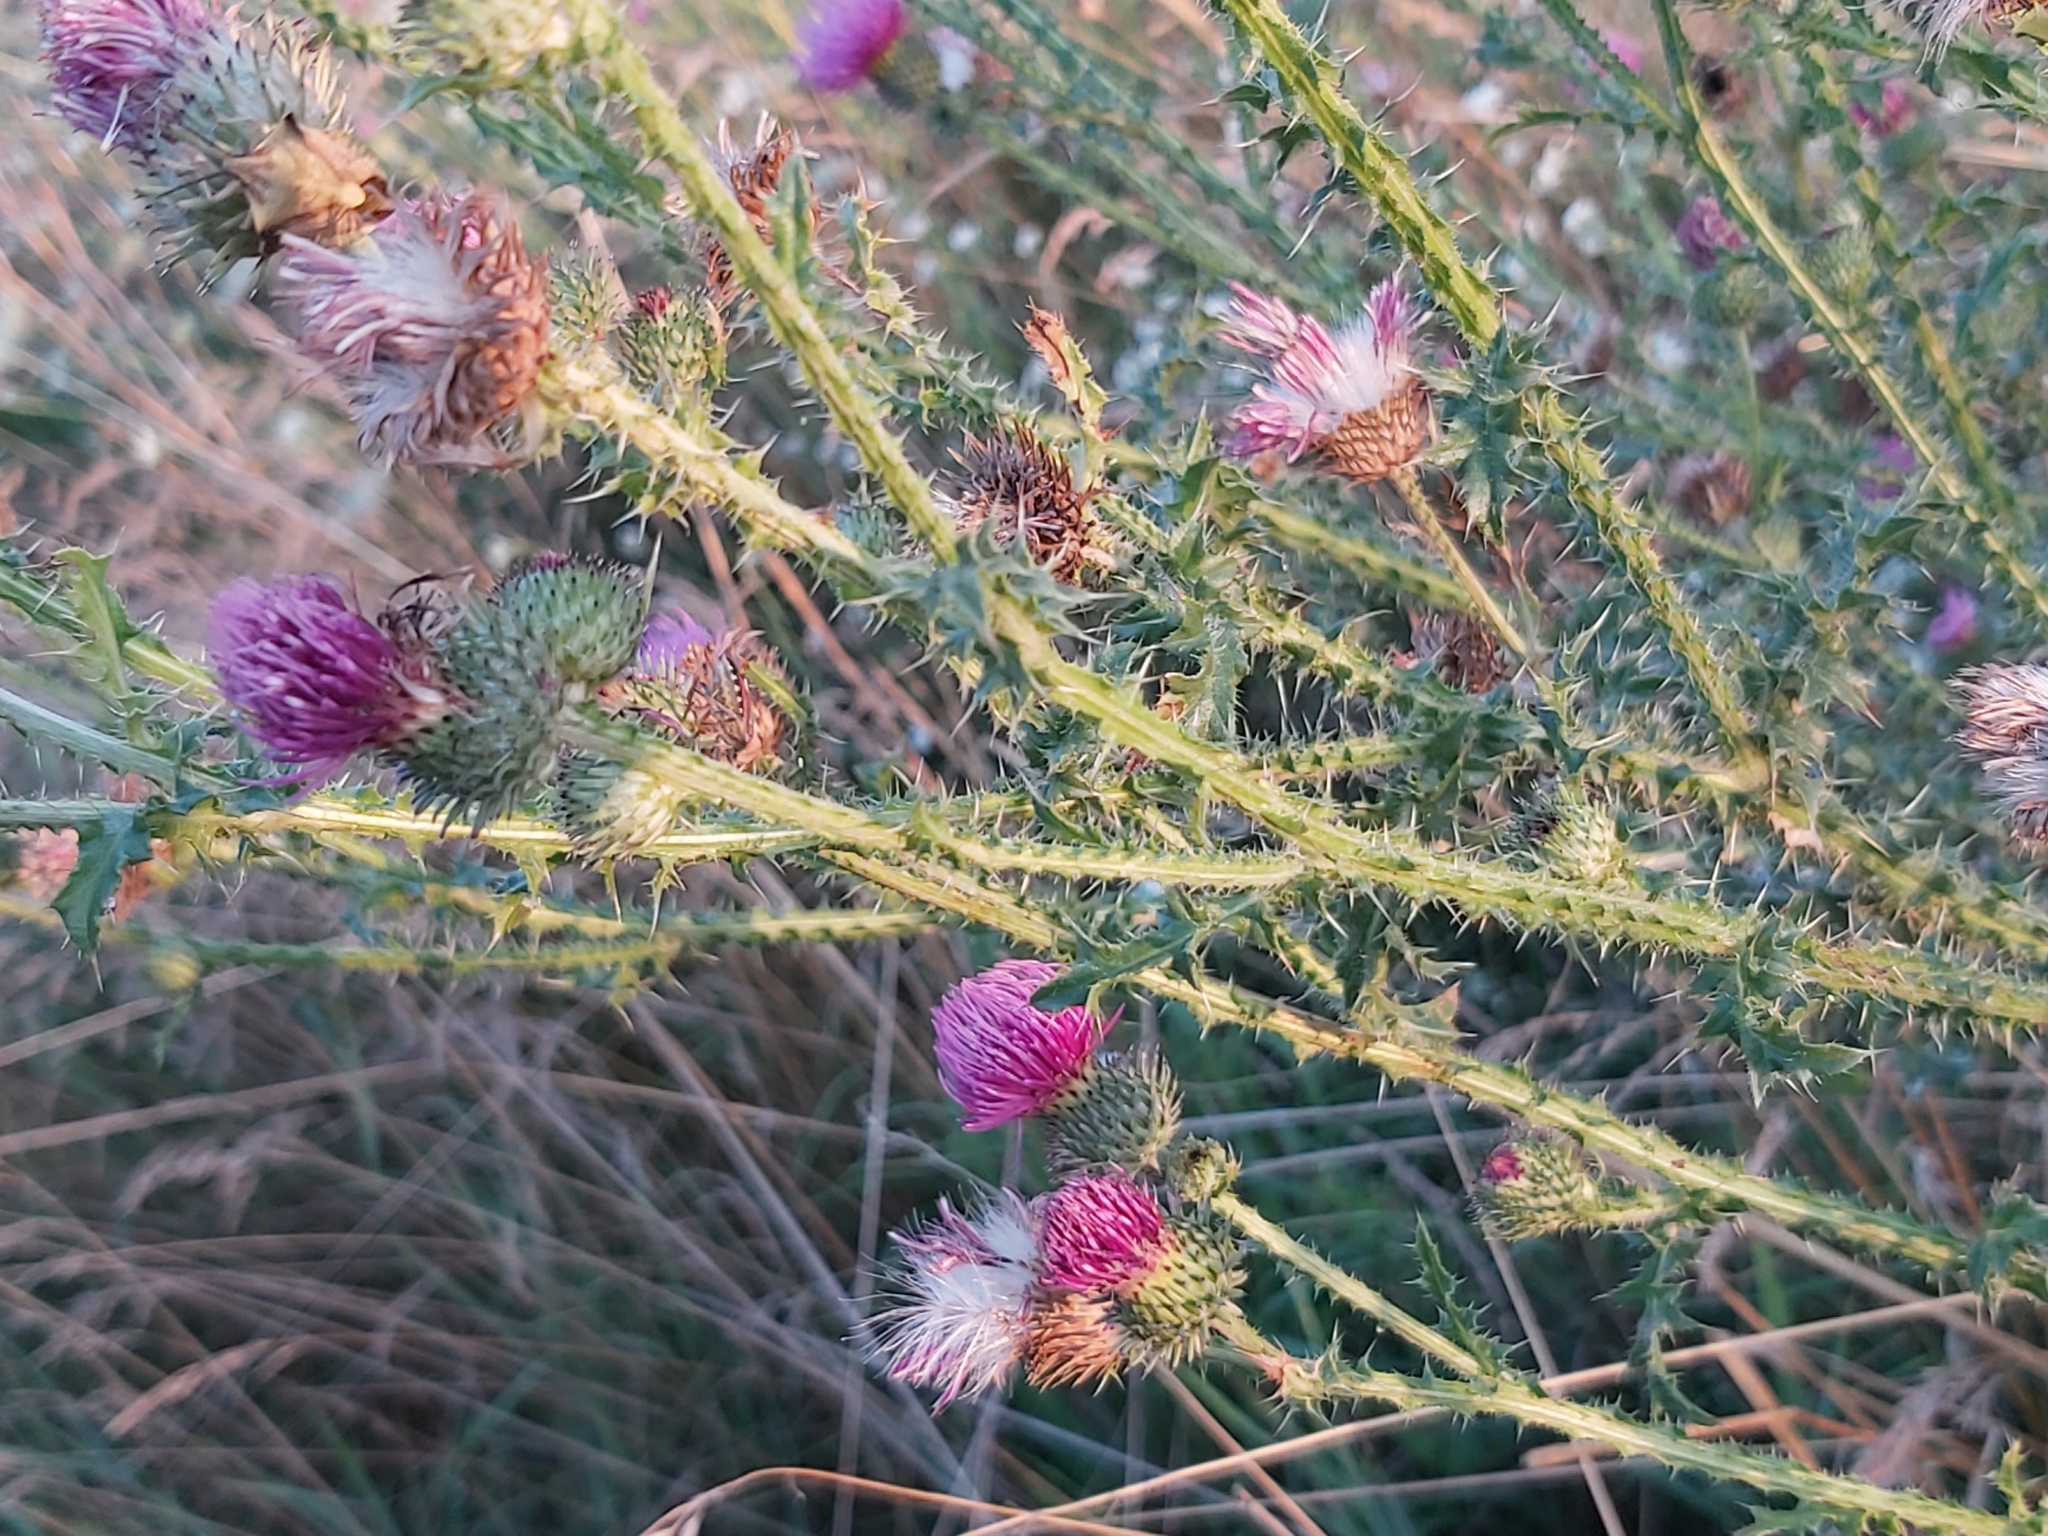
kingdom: Plantae
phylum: Tracheophyta
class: Magnoliopsida
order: Asterales
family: Asteraceae
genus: Carduus
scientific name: Carduus acanthoides
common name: Plumeless thistle
